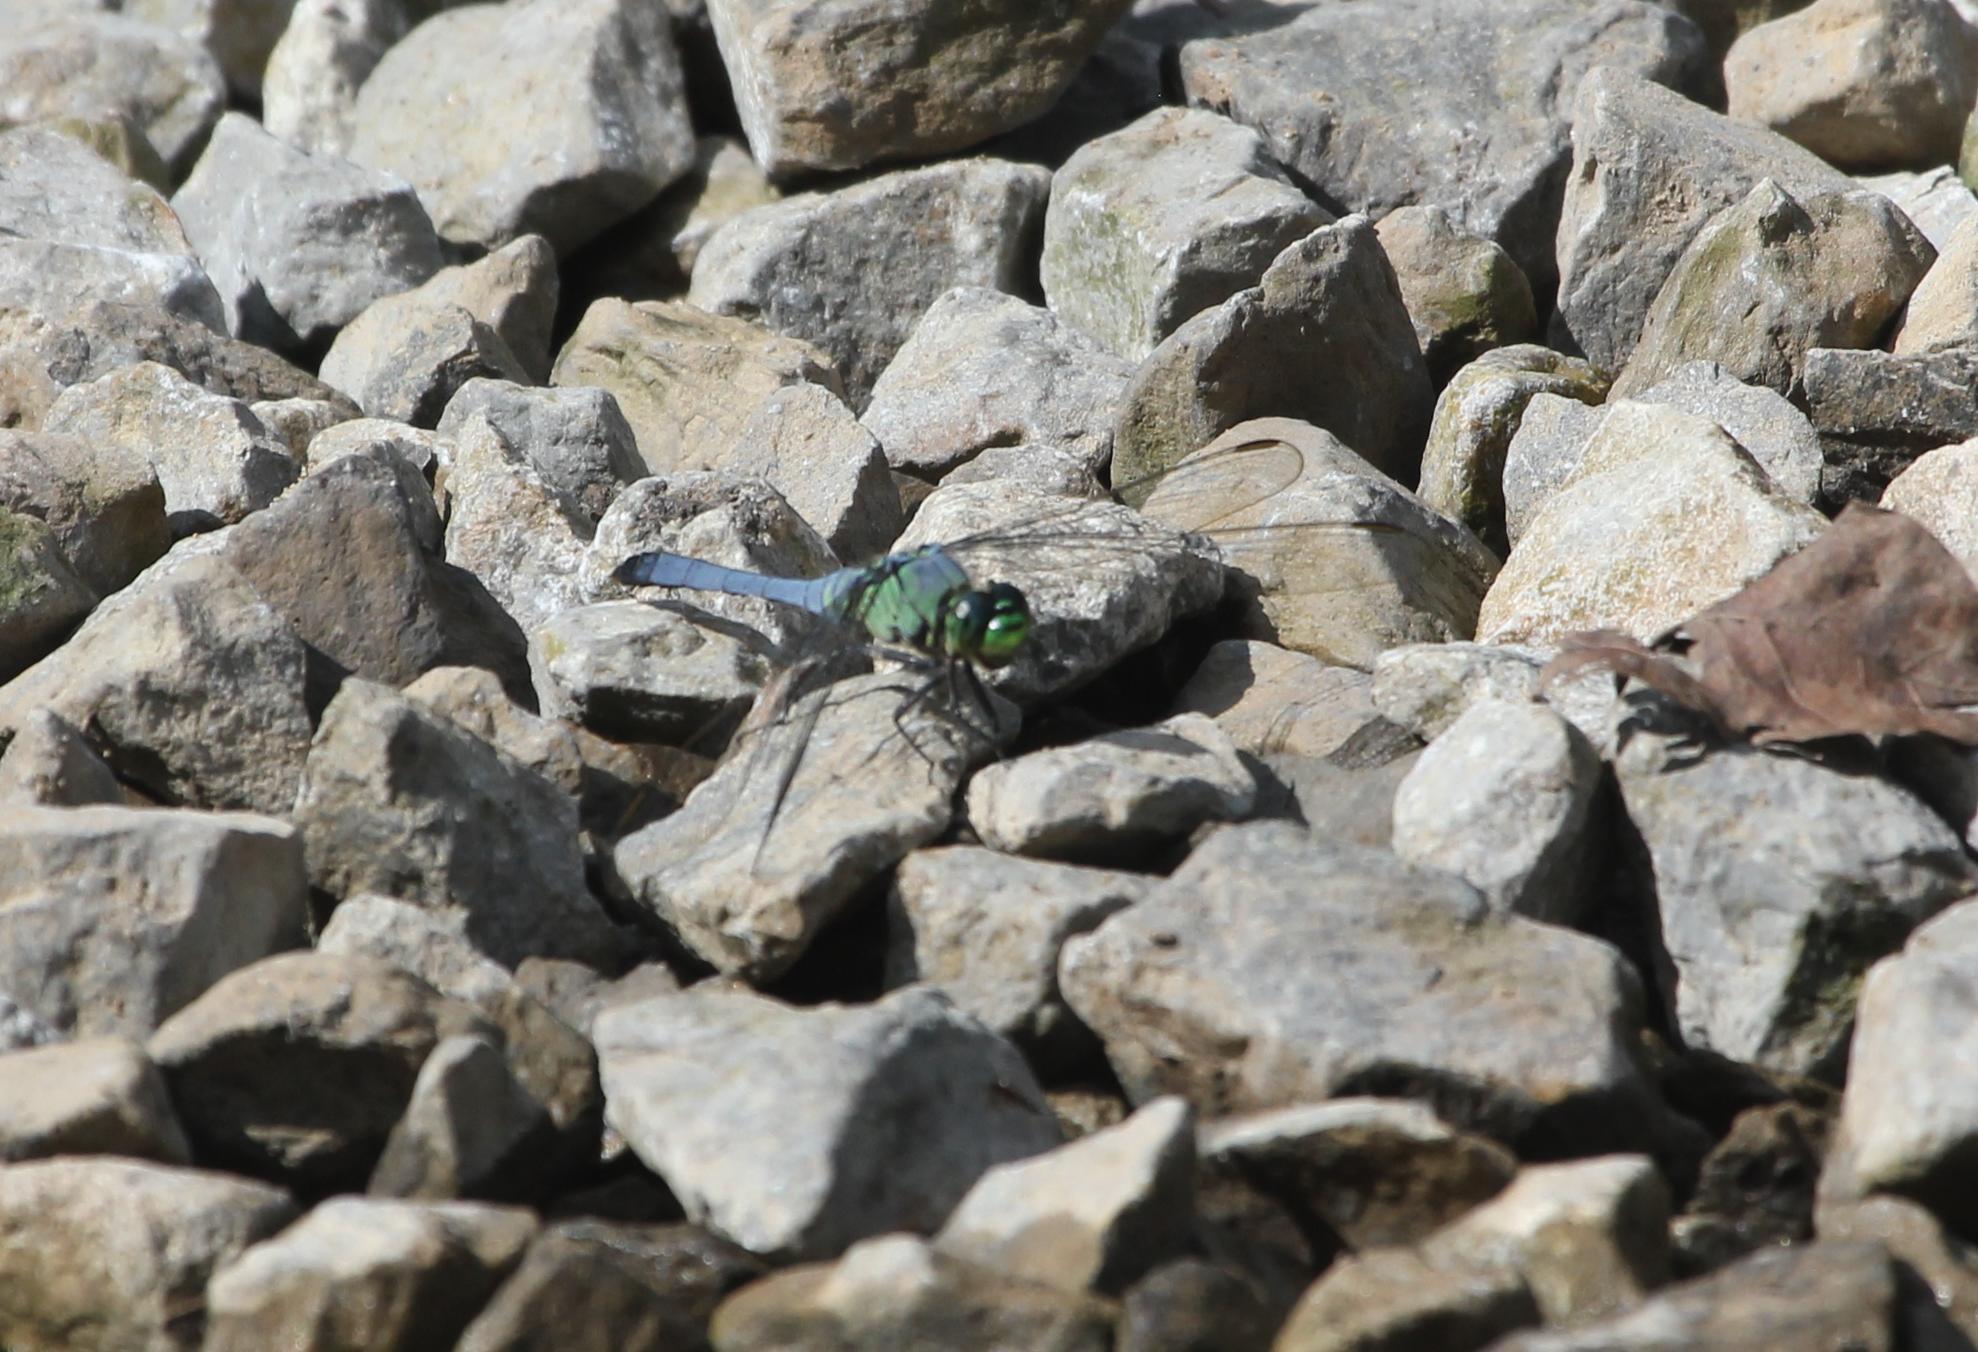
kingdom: Animalia
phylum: Arthropoda
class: Insecta
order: Odonata
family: Libellulidae
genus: Erythemis
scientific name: Erythemis simplicicollis
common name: Eastern pondhawk
